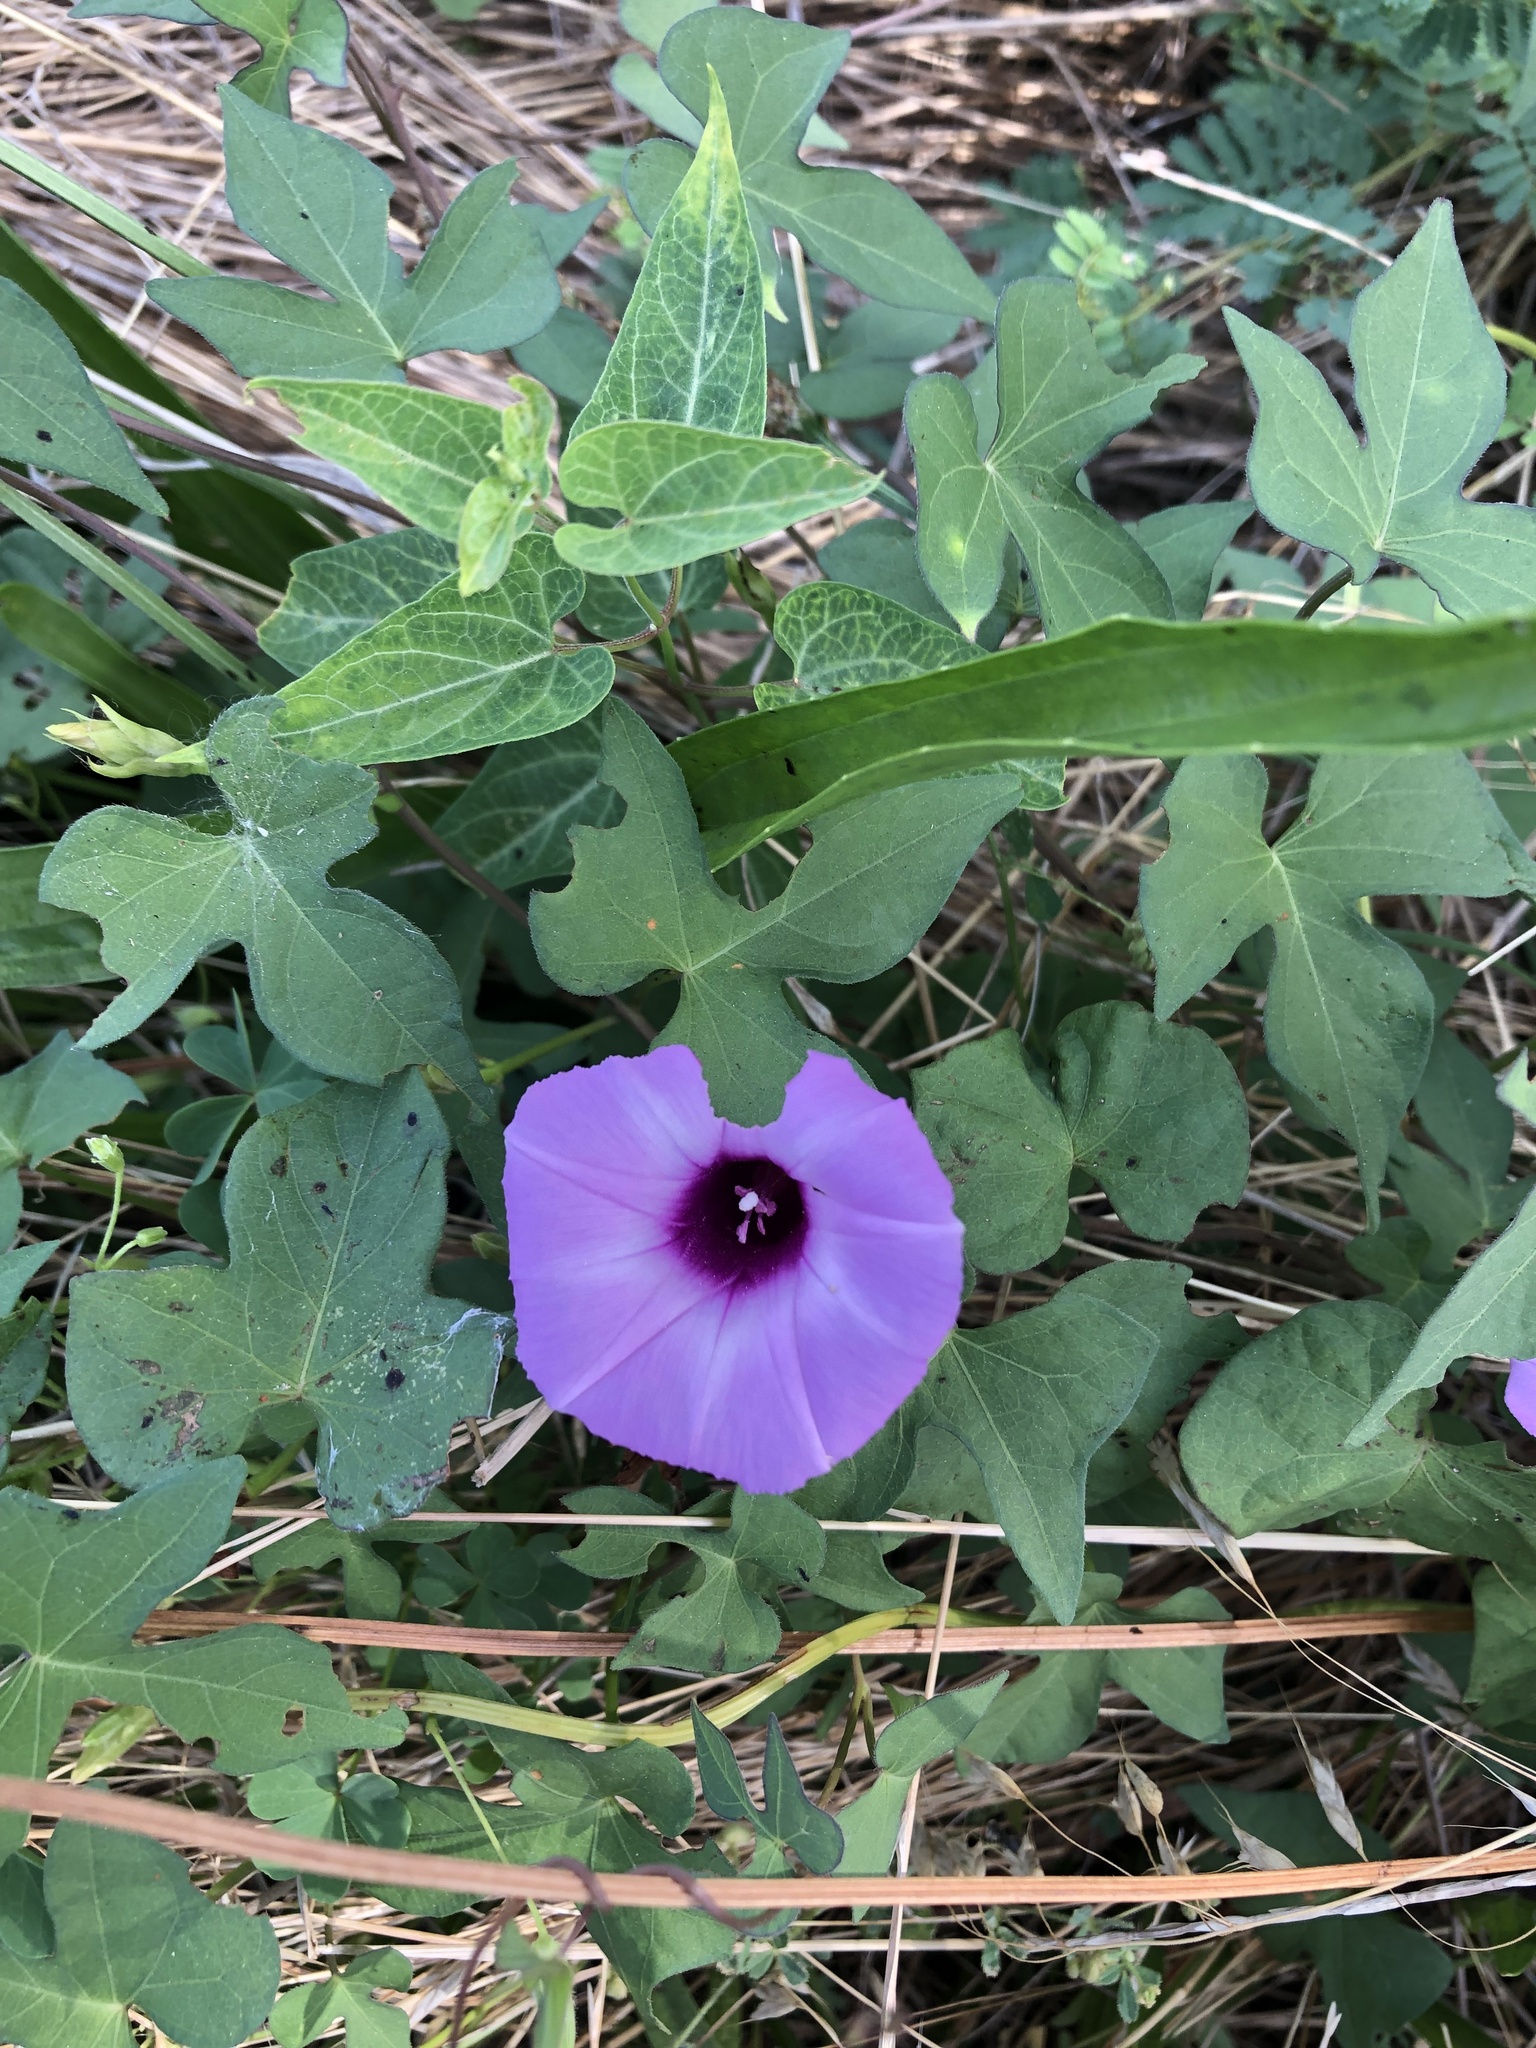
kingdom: Plantae
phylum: Tracheophyta
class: Magnoliopsida
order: Solanales
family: Convolvulaceae
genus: Ipomoea
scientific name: Ipomoea cordatotriloba
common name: Cotton morning glory
